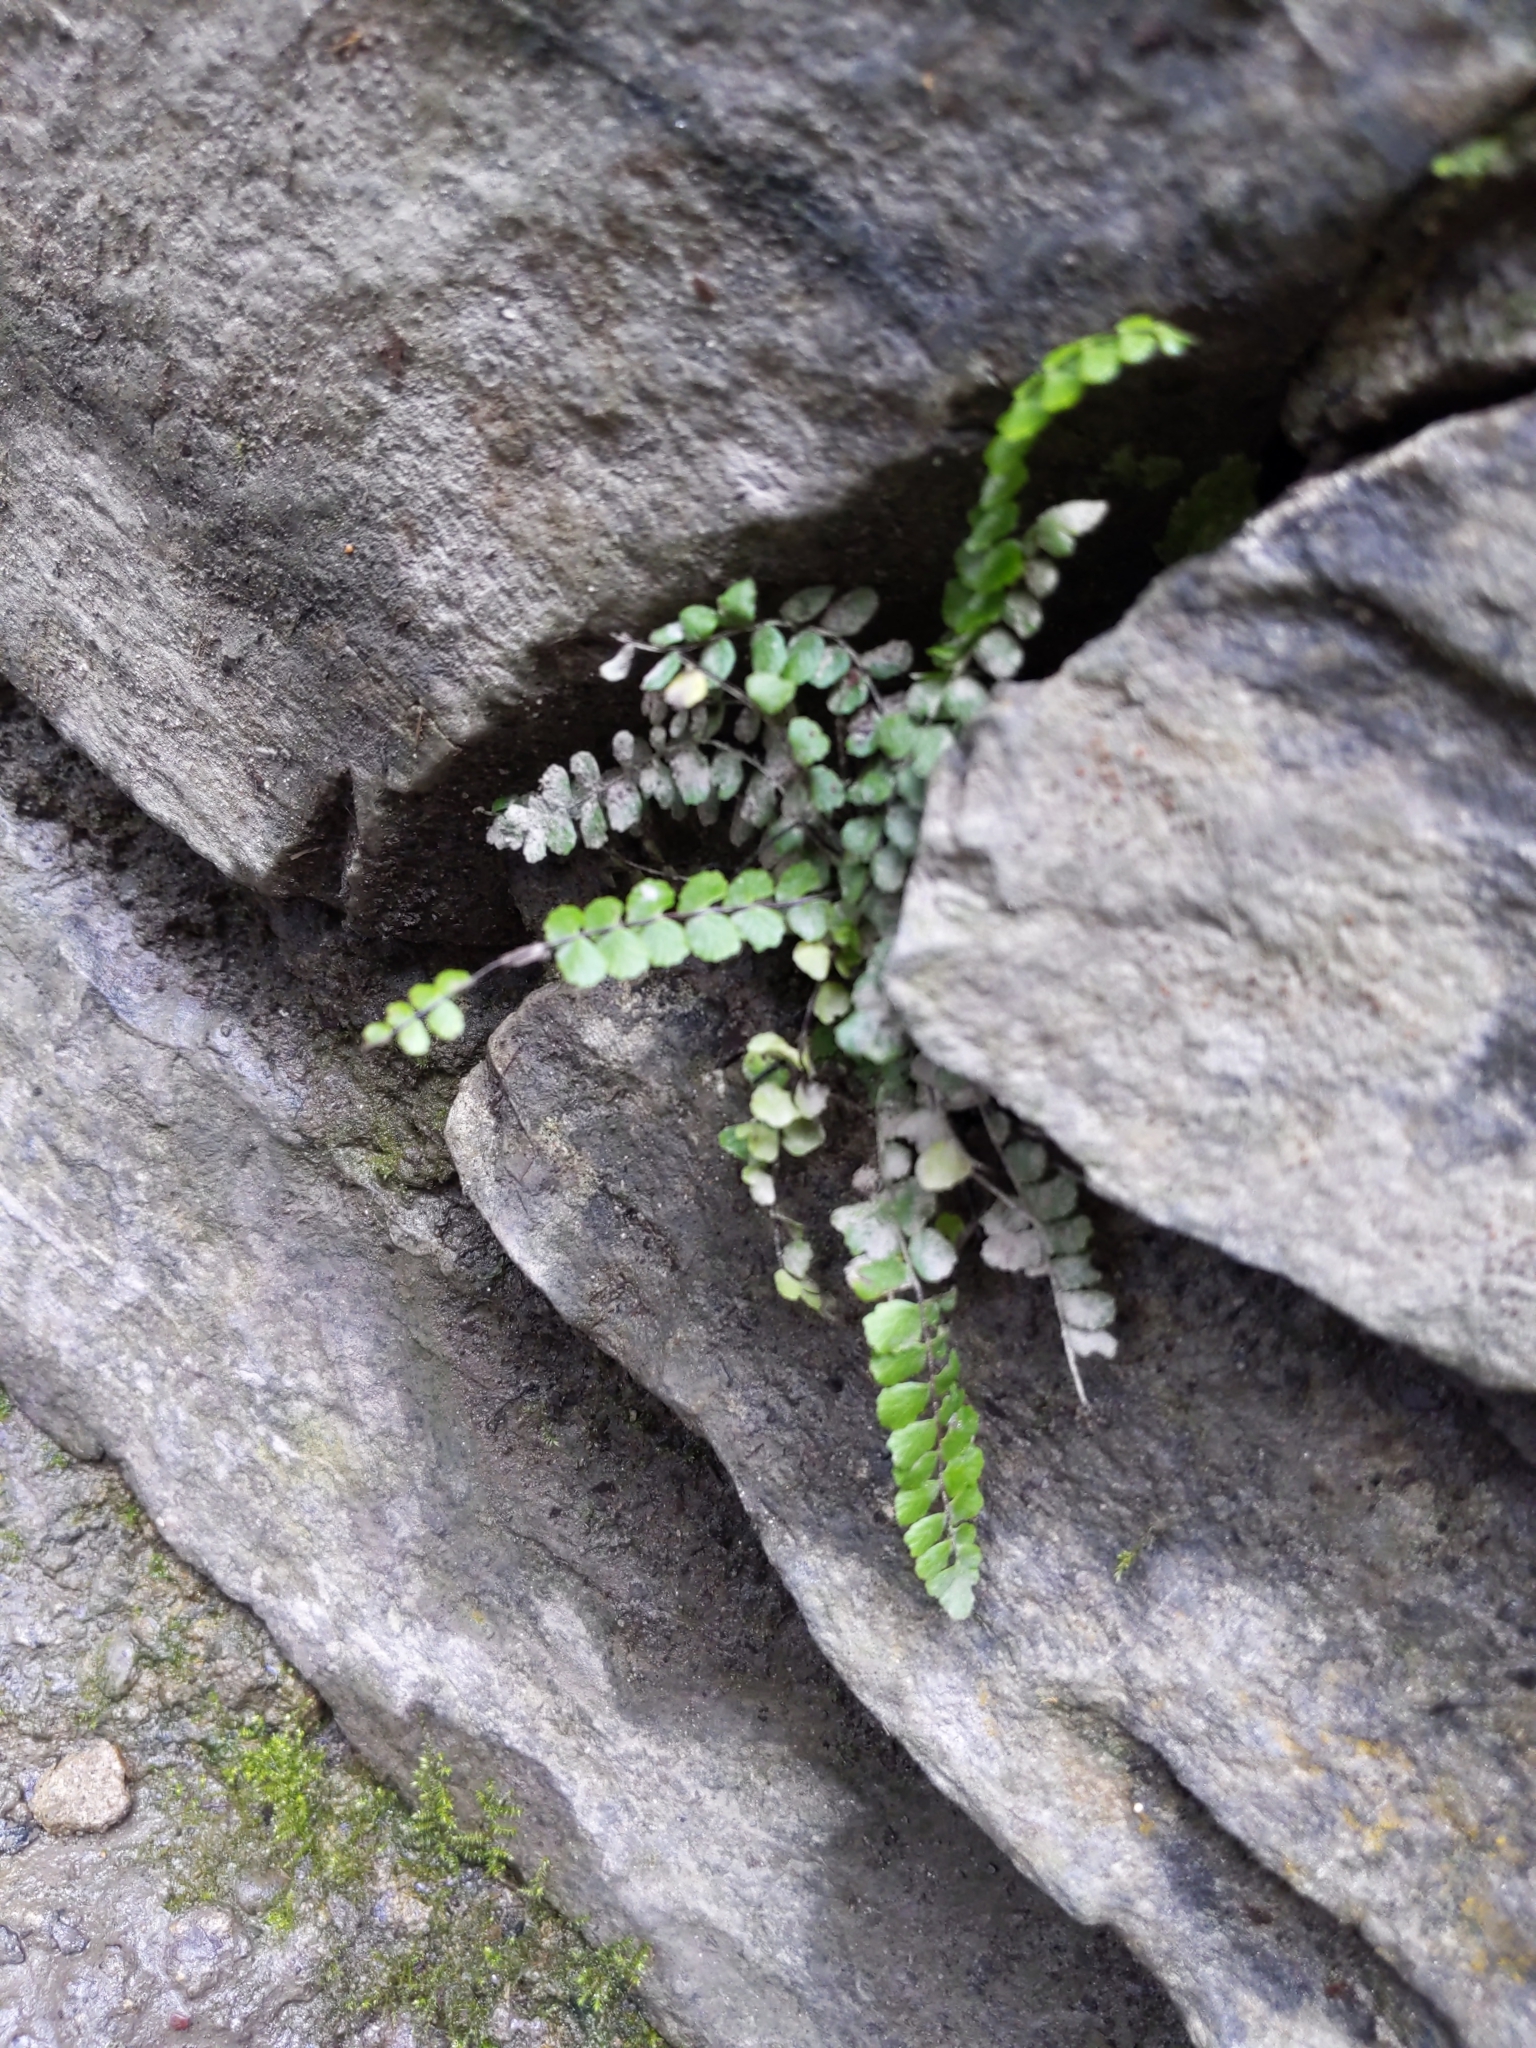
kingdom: Plantae
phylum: Tracheophyta
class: Polypodiopsida
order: Polypodiales
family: Aspleniaceae
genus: Asplenium
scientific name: Asplenium trichomanes
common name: Maidenhair spleenwort
